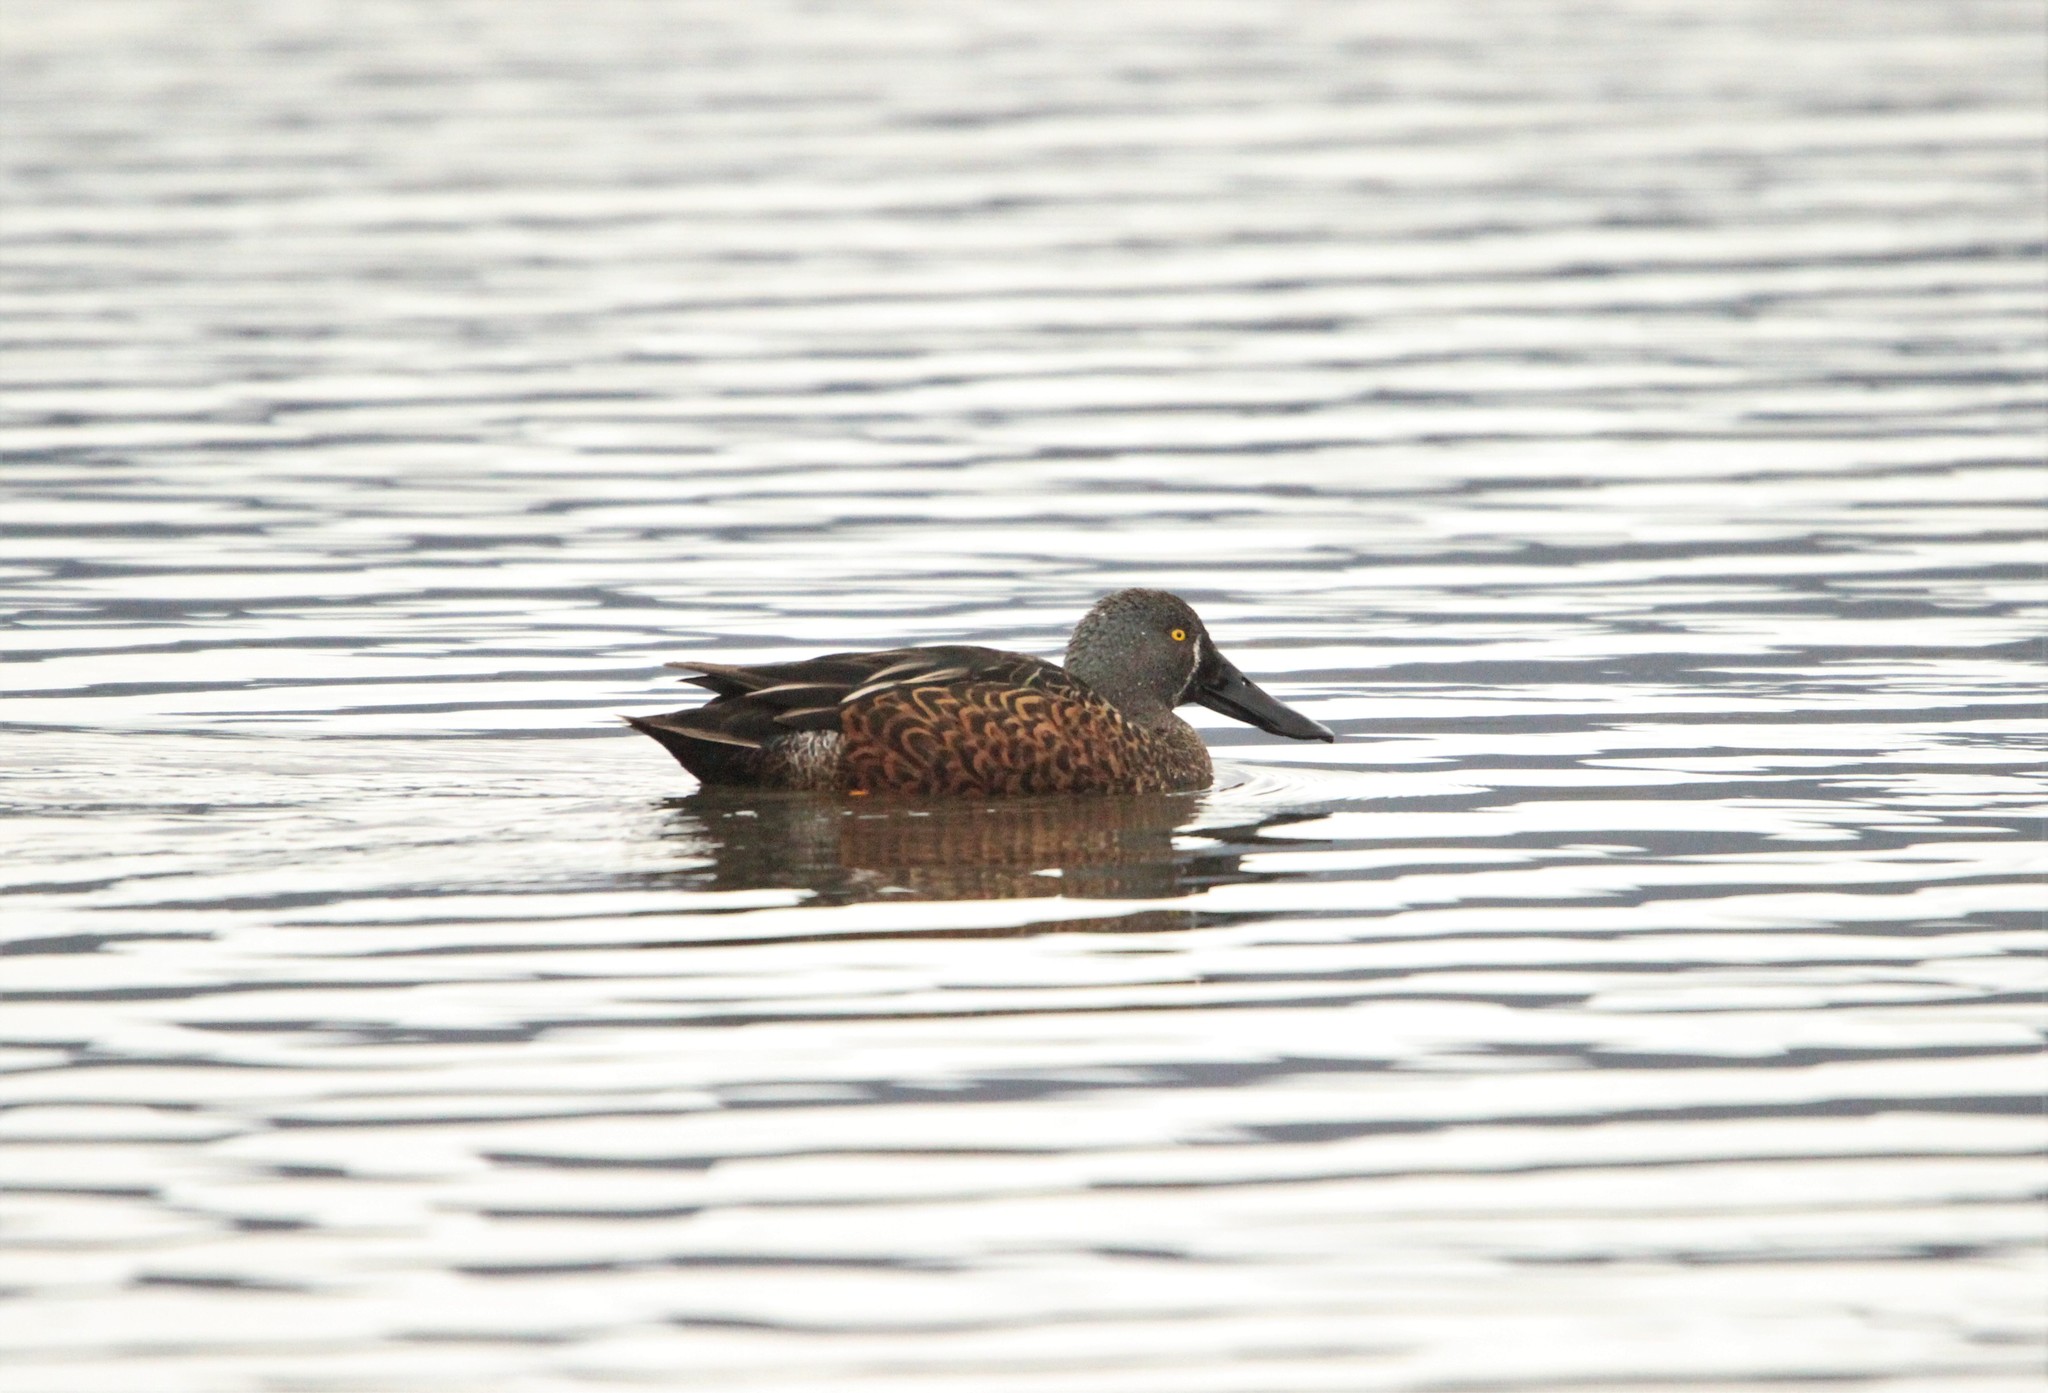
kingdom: Animalia
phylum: Chordata
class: Aves
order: Anseriformes
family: Anatidae
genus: Spatula
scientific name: Spatula rhynchotis
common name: Australian shoveler
